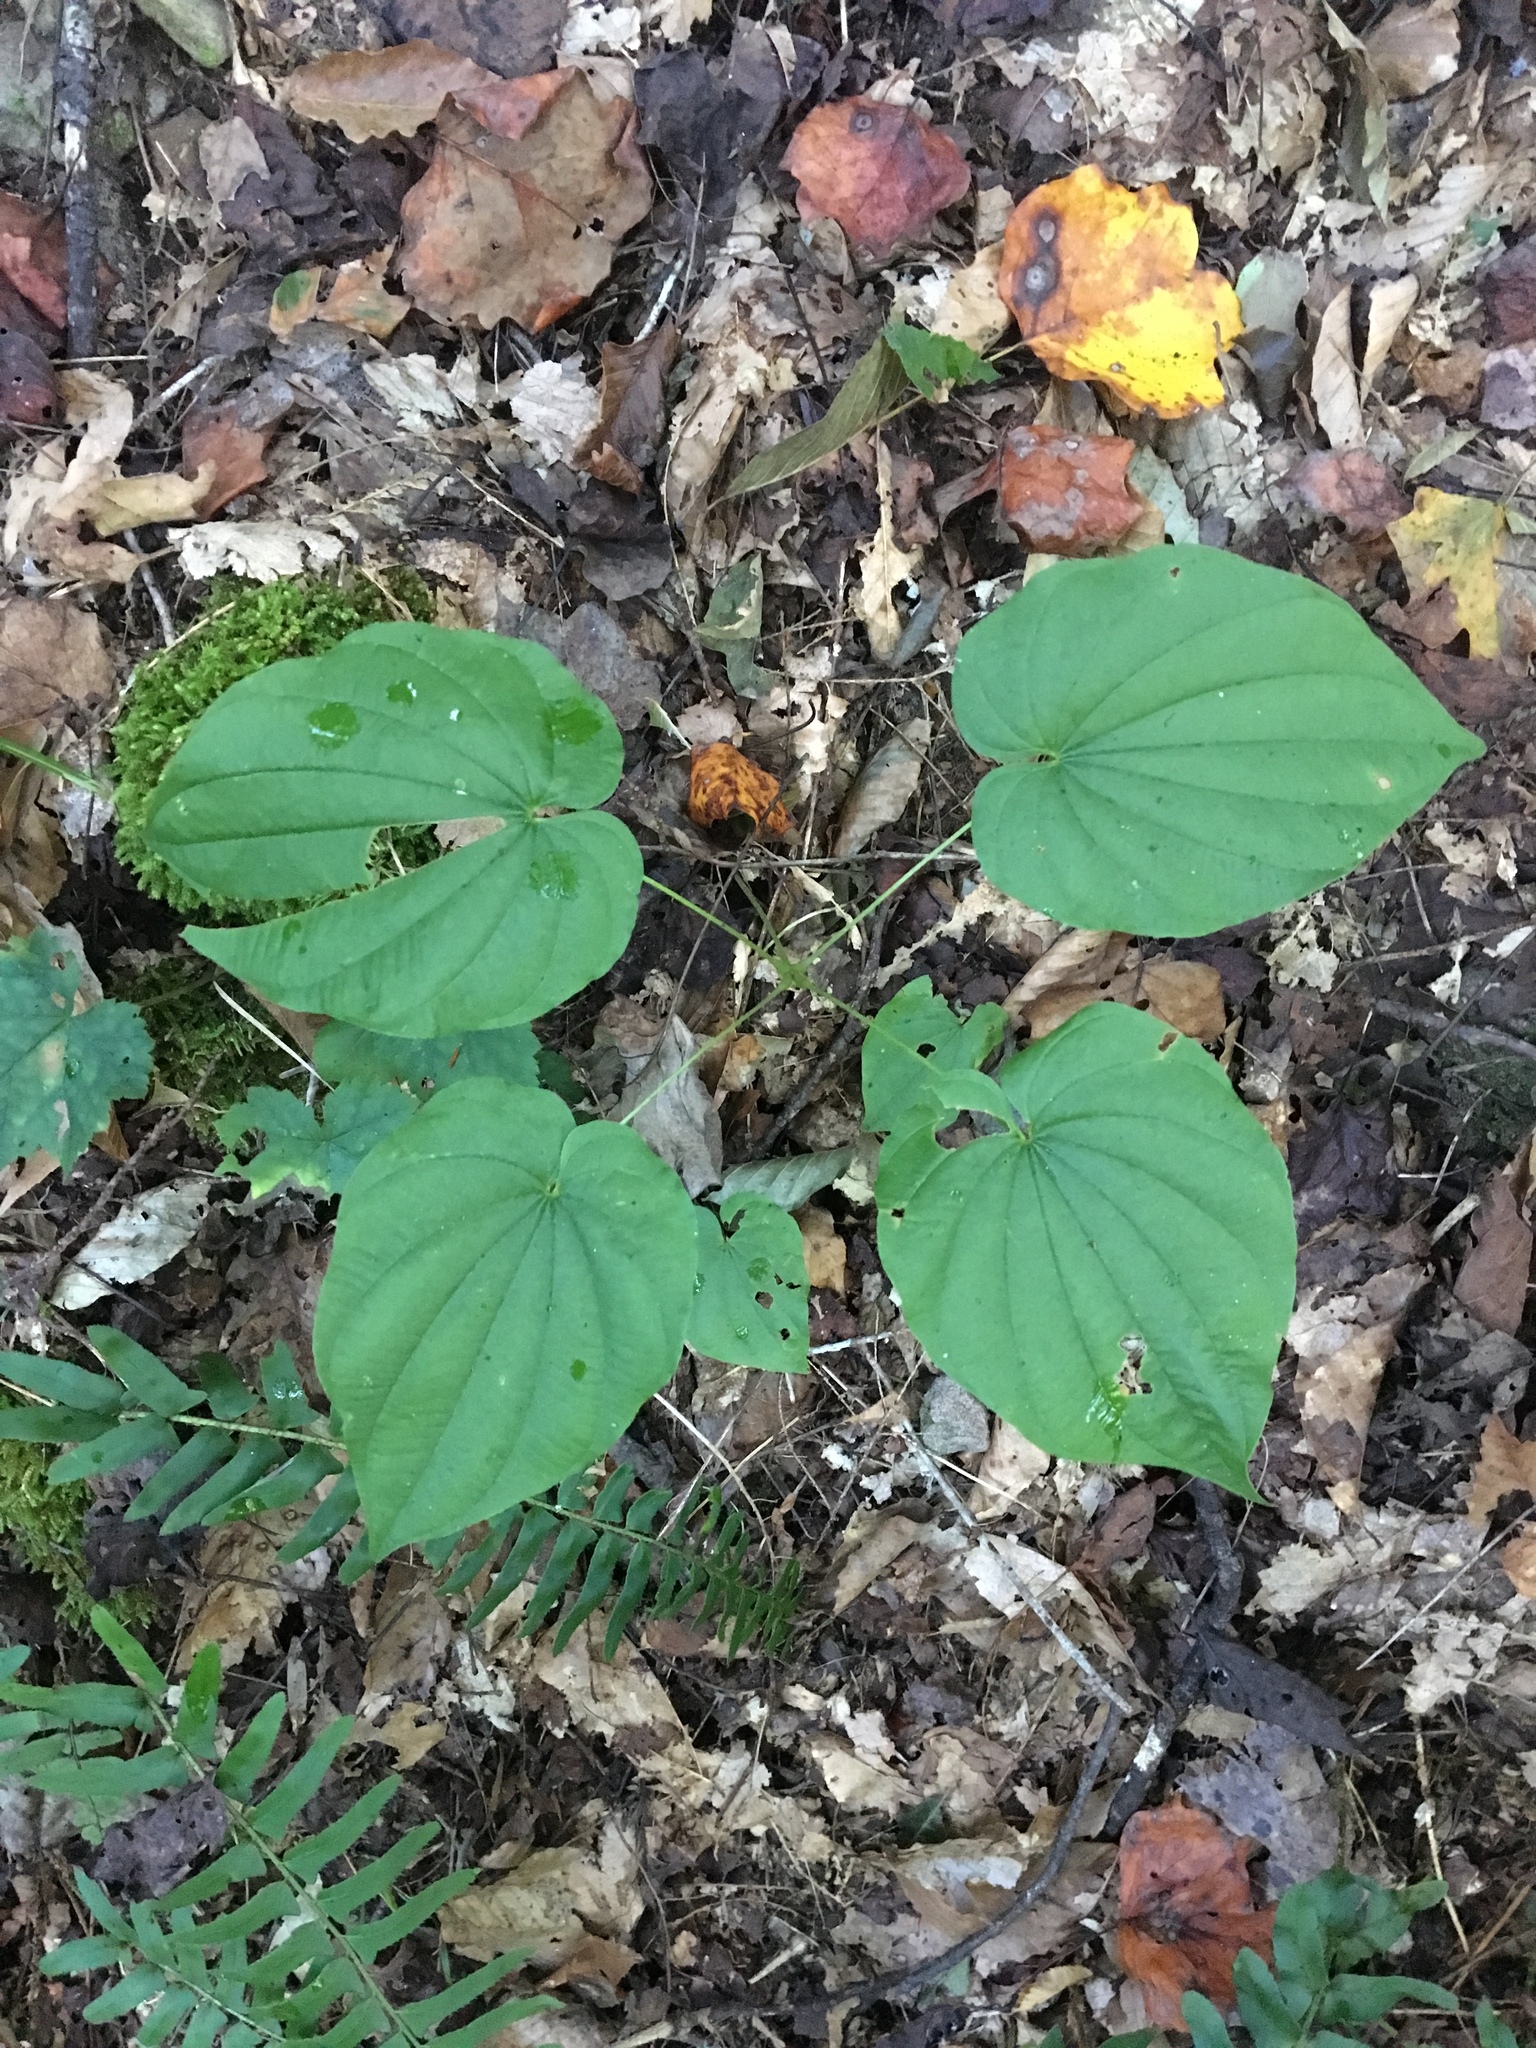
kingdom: Plantae
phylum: Tracheophyta
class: Liliopsida
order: Dioscoreales
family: Dioscoreaceae
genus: Dioscorea
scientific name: Dioscorea villosa
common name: Wild yam
